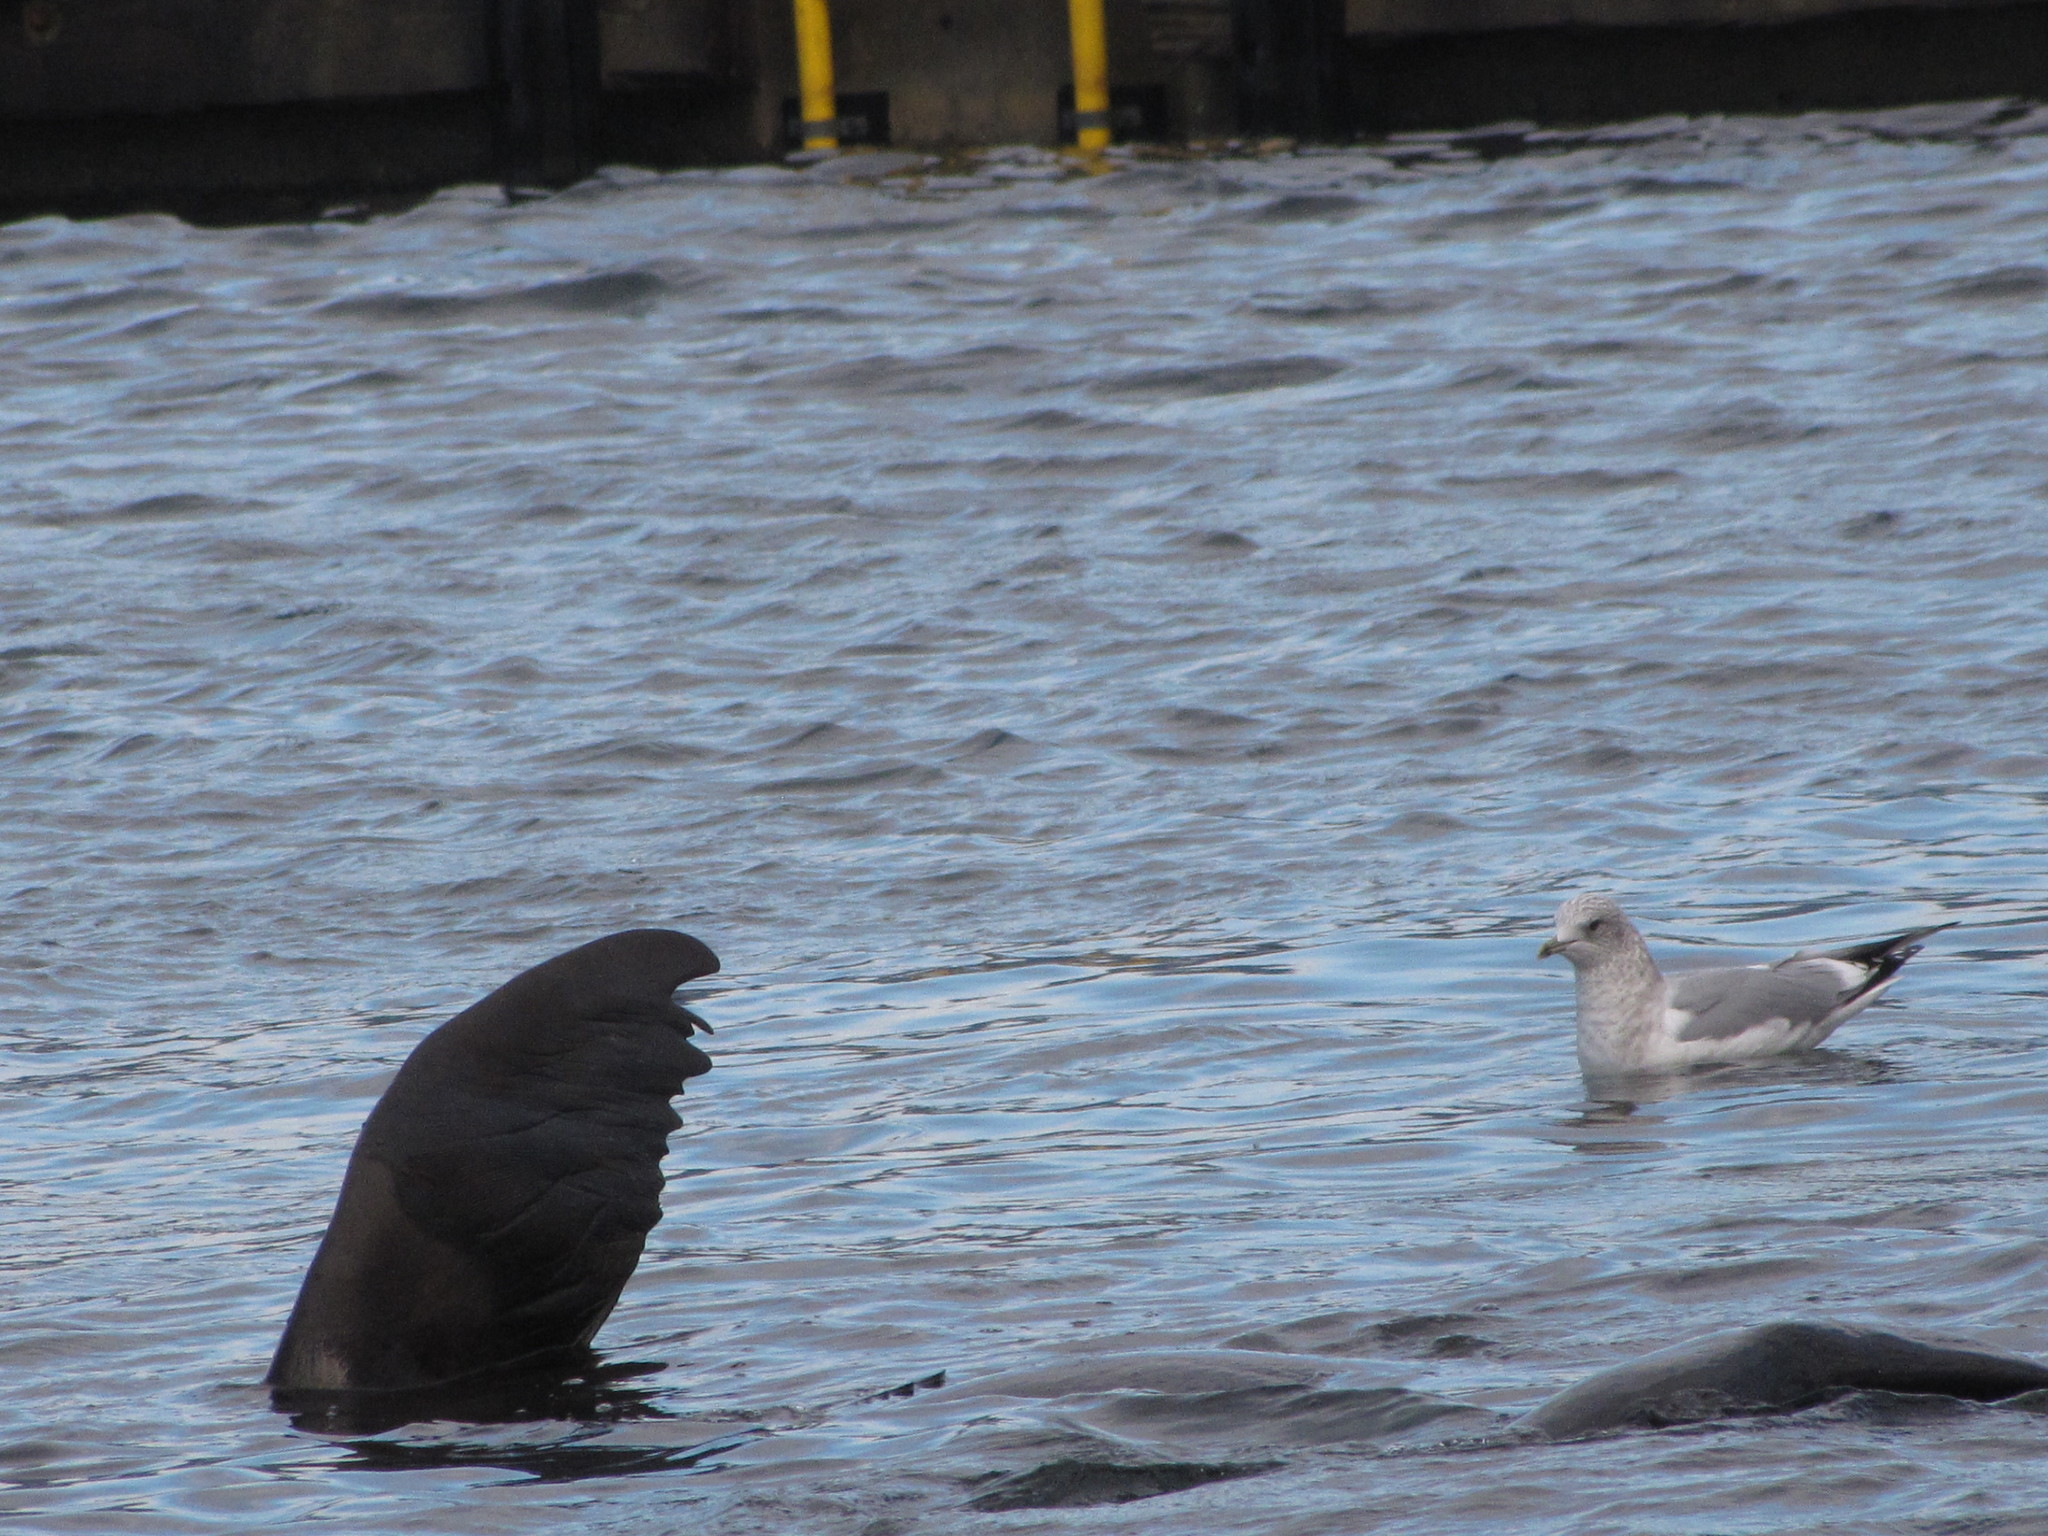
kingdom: Animalia
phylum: Chordata
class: Aves
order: Charadriiformes
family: Laridae
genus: Larus
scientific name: Larus brachyrhynchus
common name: Short-billed gull
